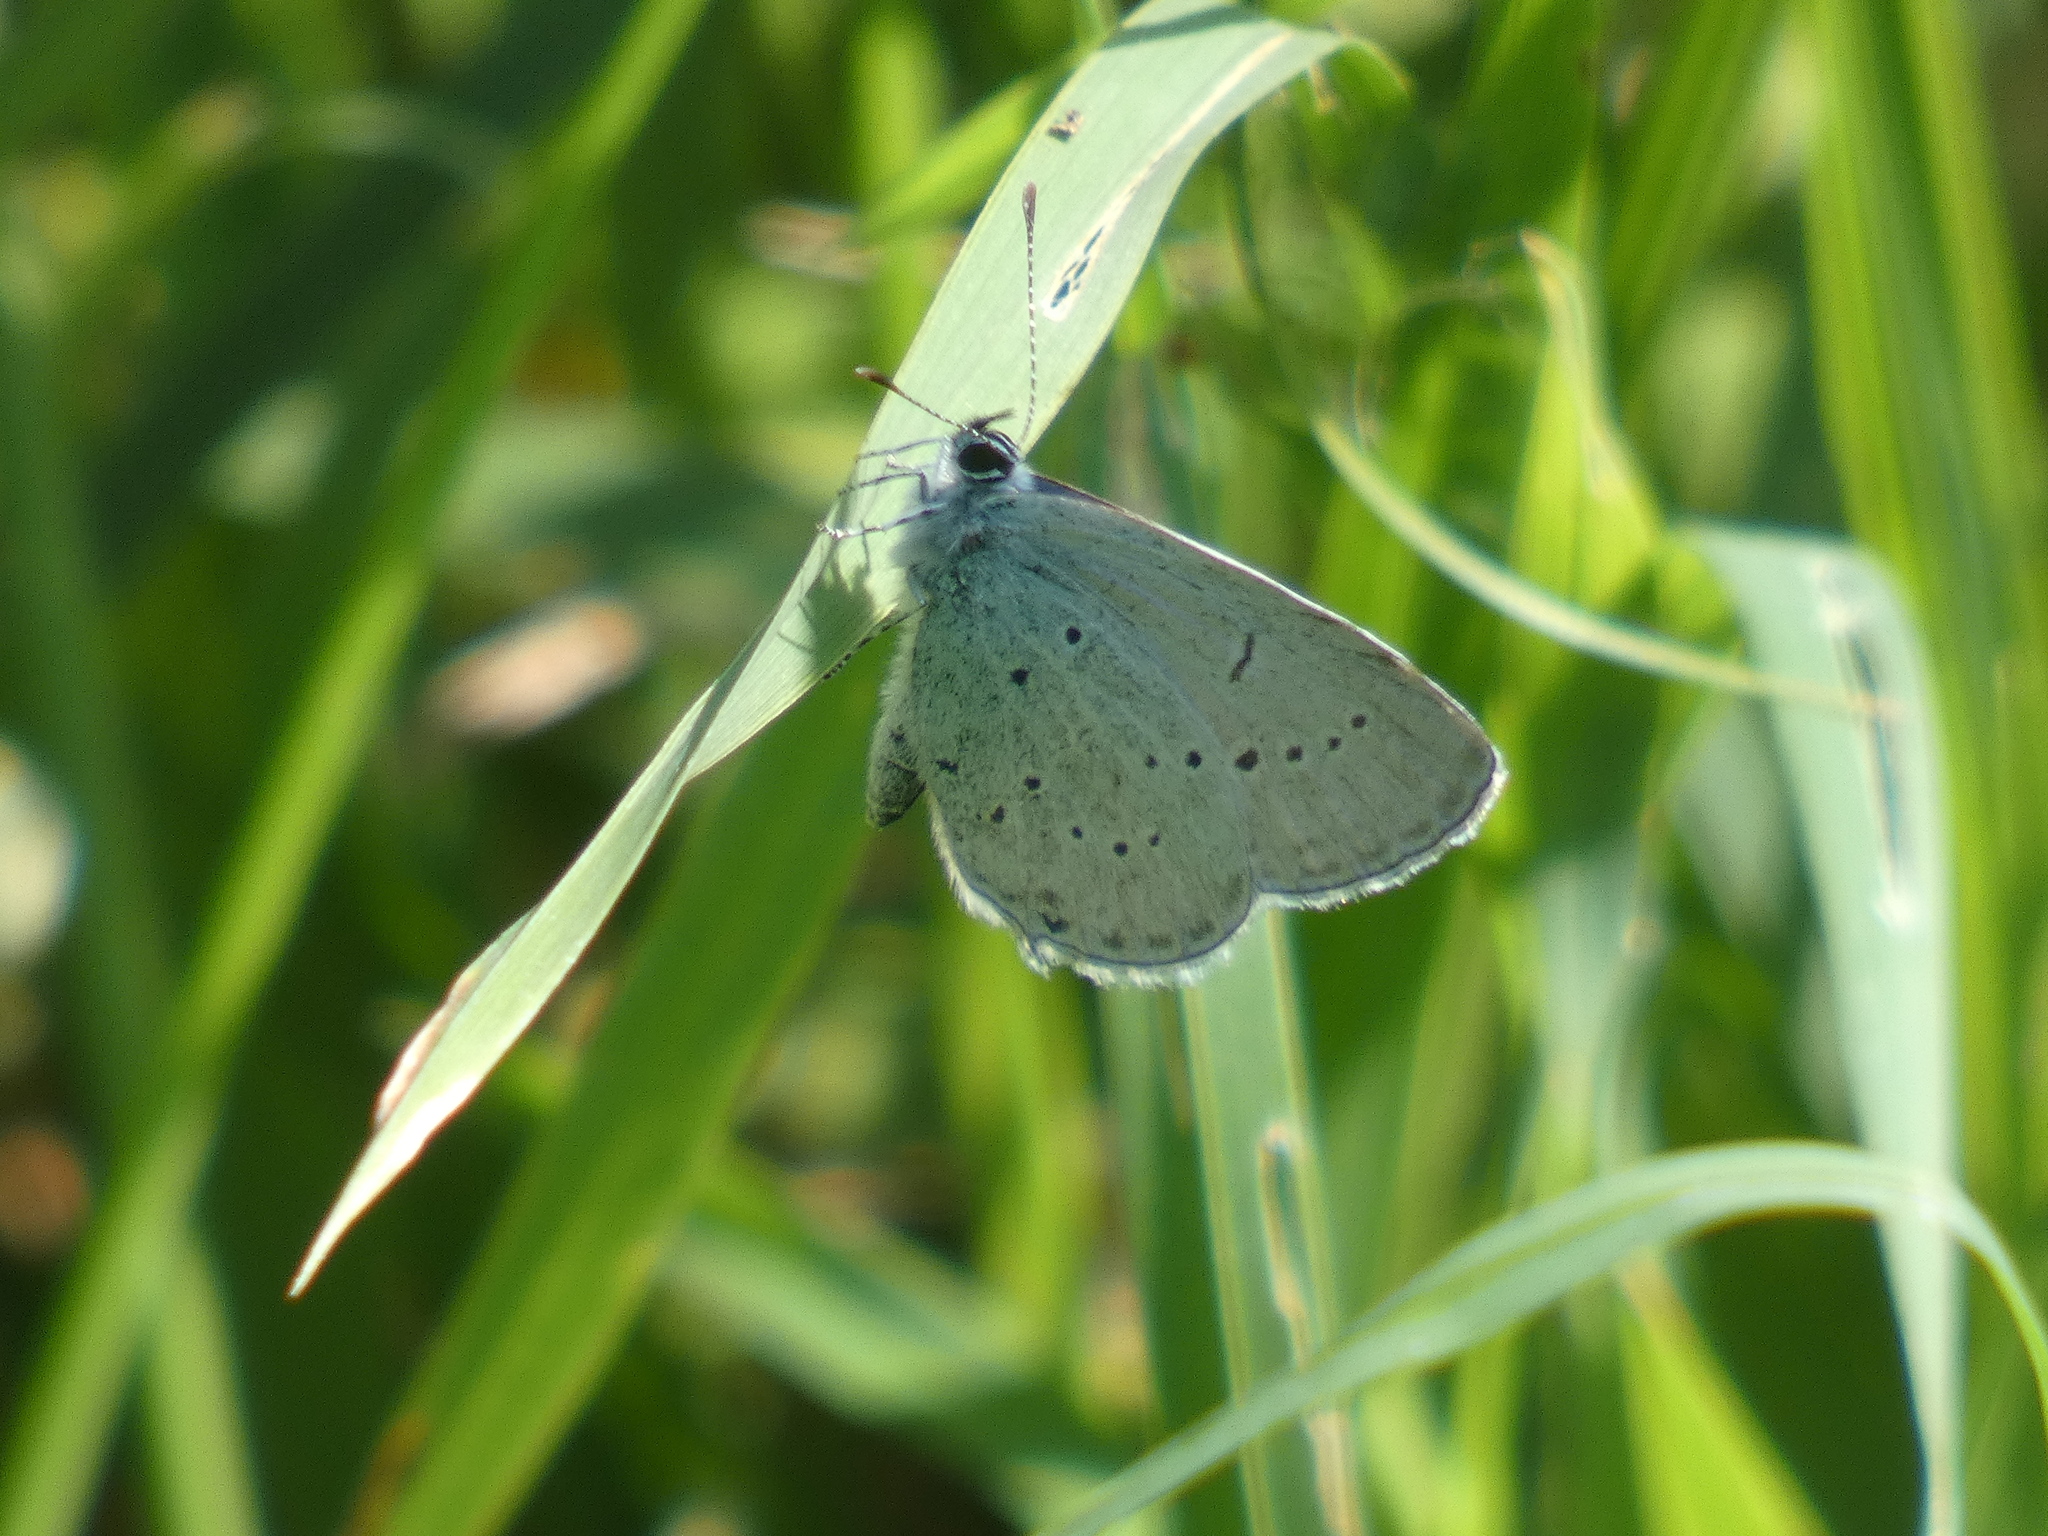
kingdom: Animalia
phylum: Arthropoda
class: Insecta
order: Lepidoptera
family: Lycaenidae
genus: Elkalyce
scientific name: Elkalyce alcetas
